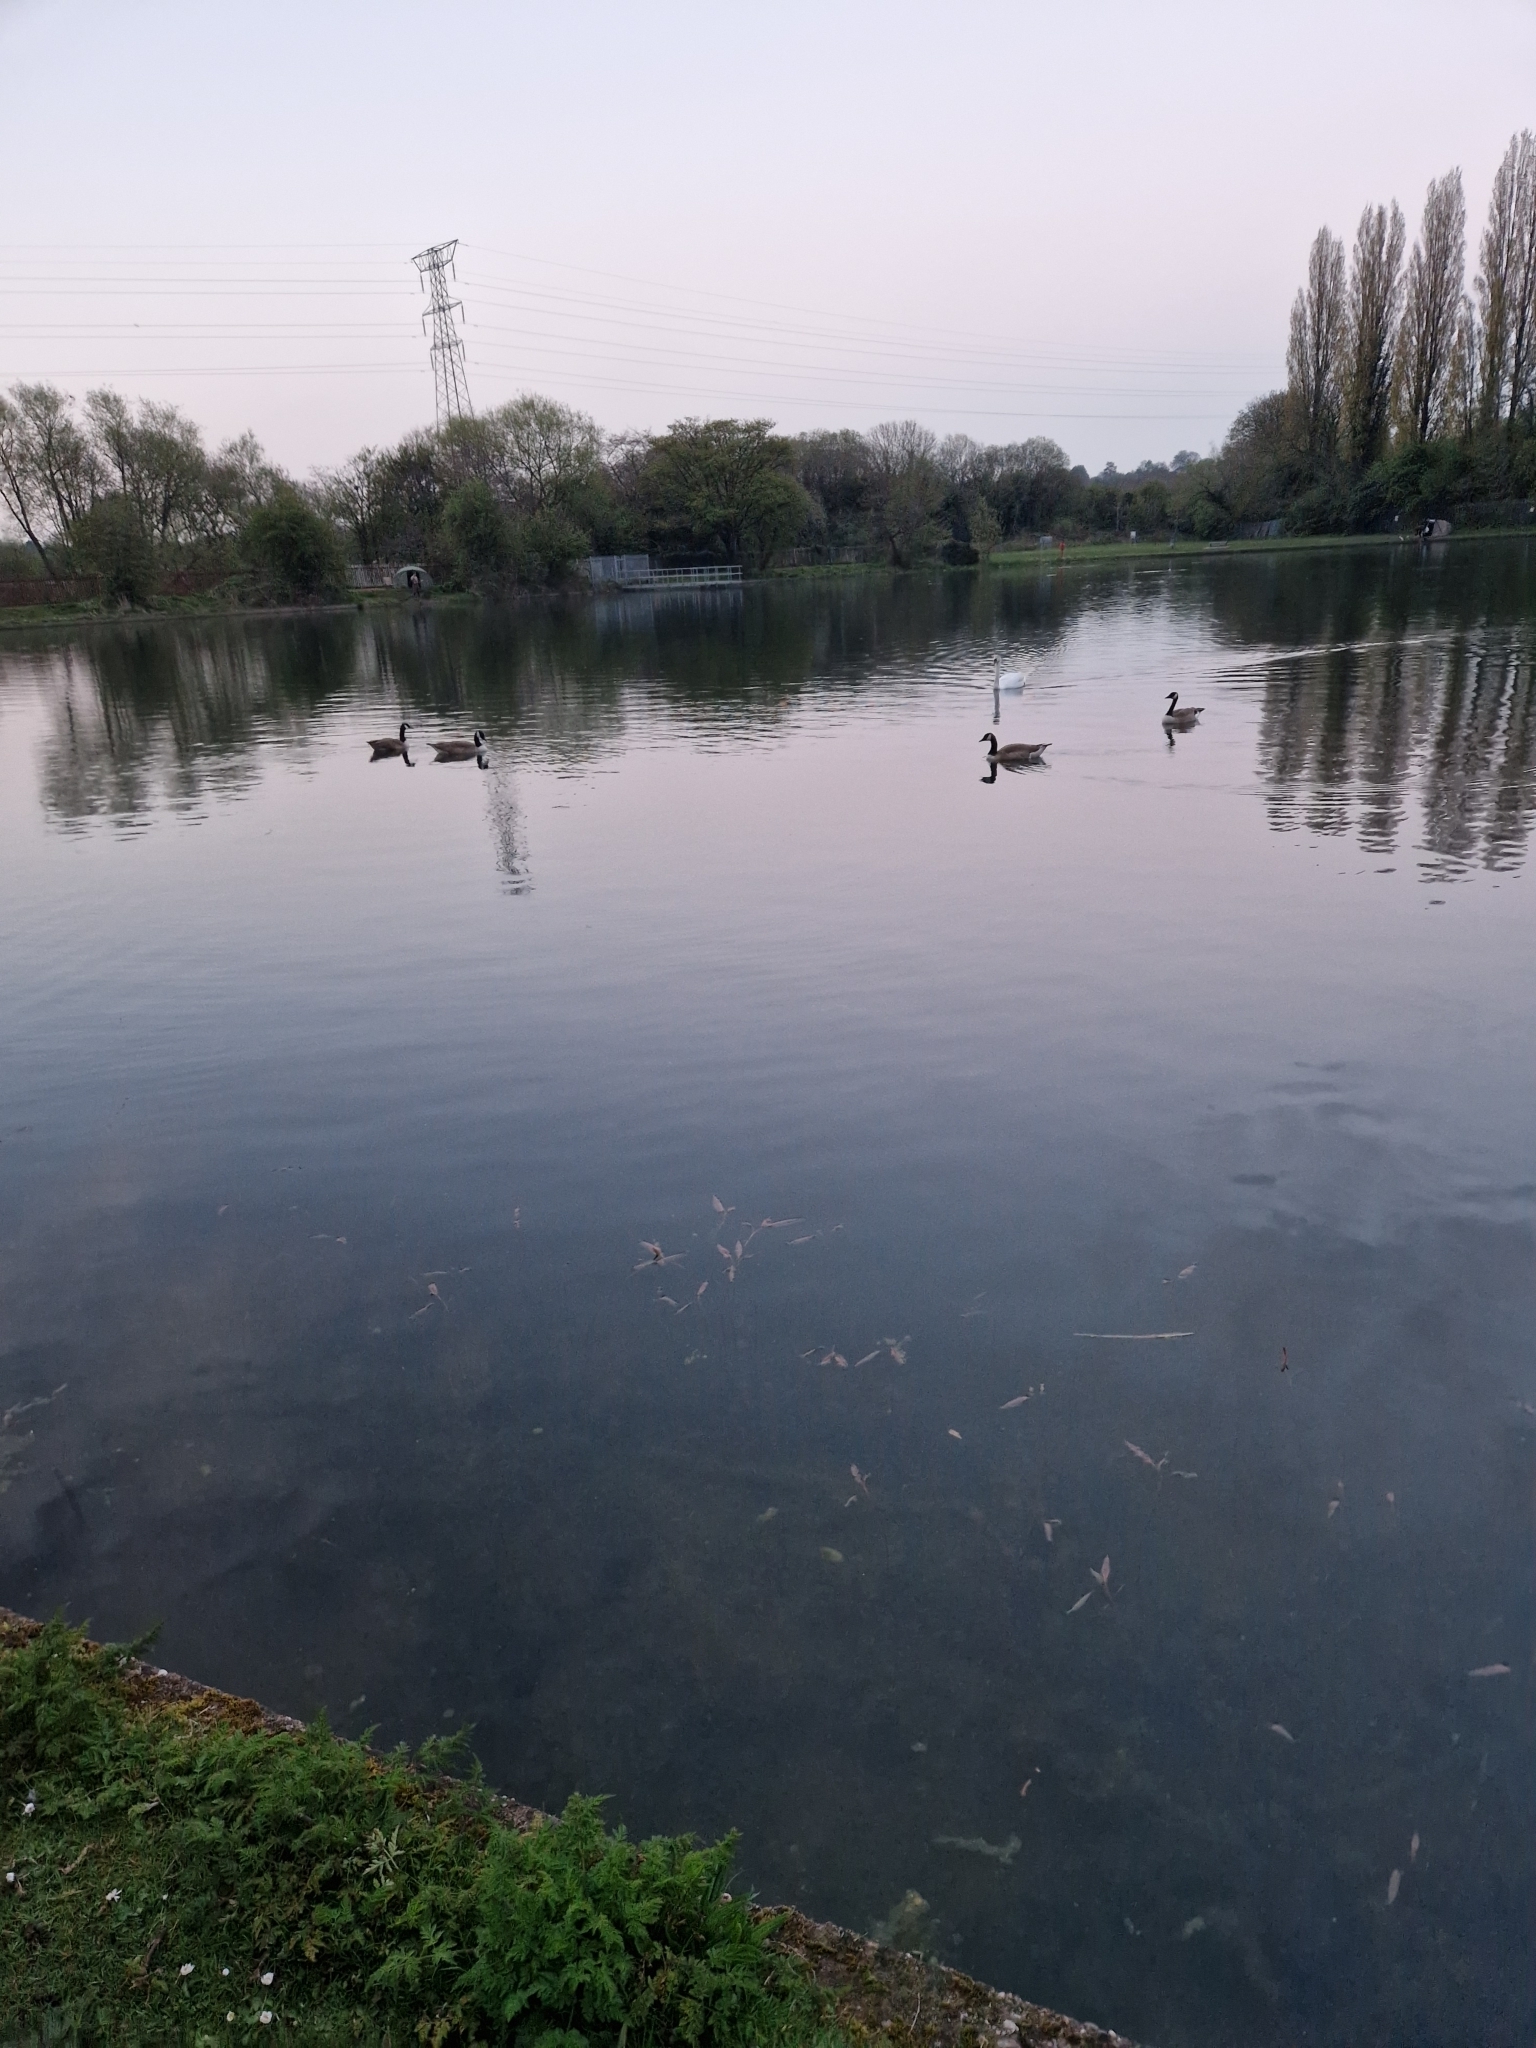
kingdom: Animalia
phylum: Chordata
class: Aves
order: Anseriformes
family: Anatidae
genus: Branta
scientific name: Branta canadensis
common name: Canada goose
